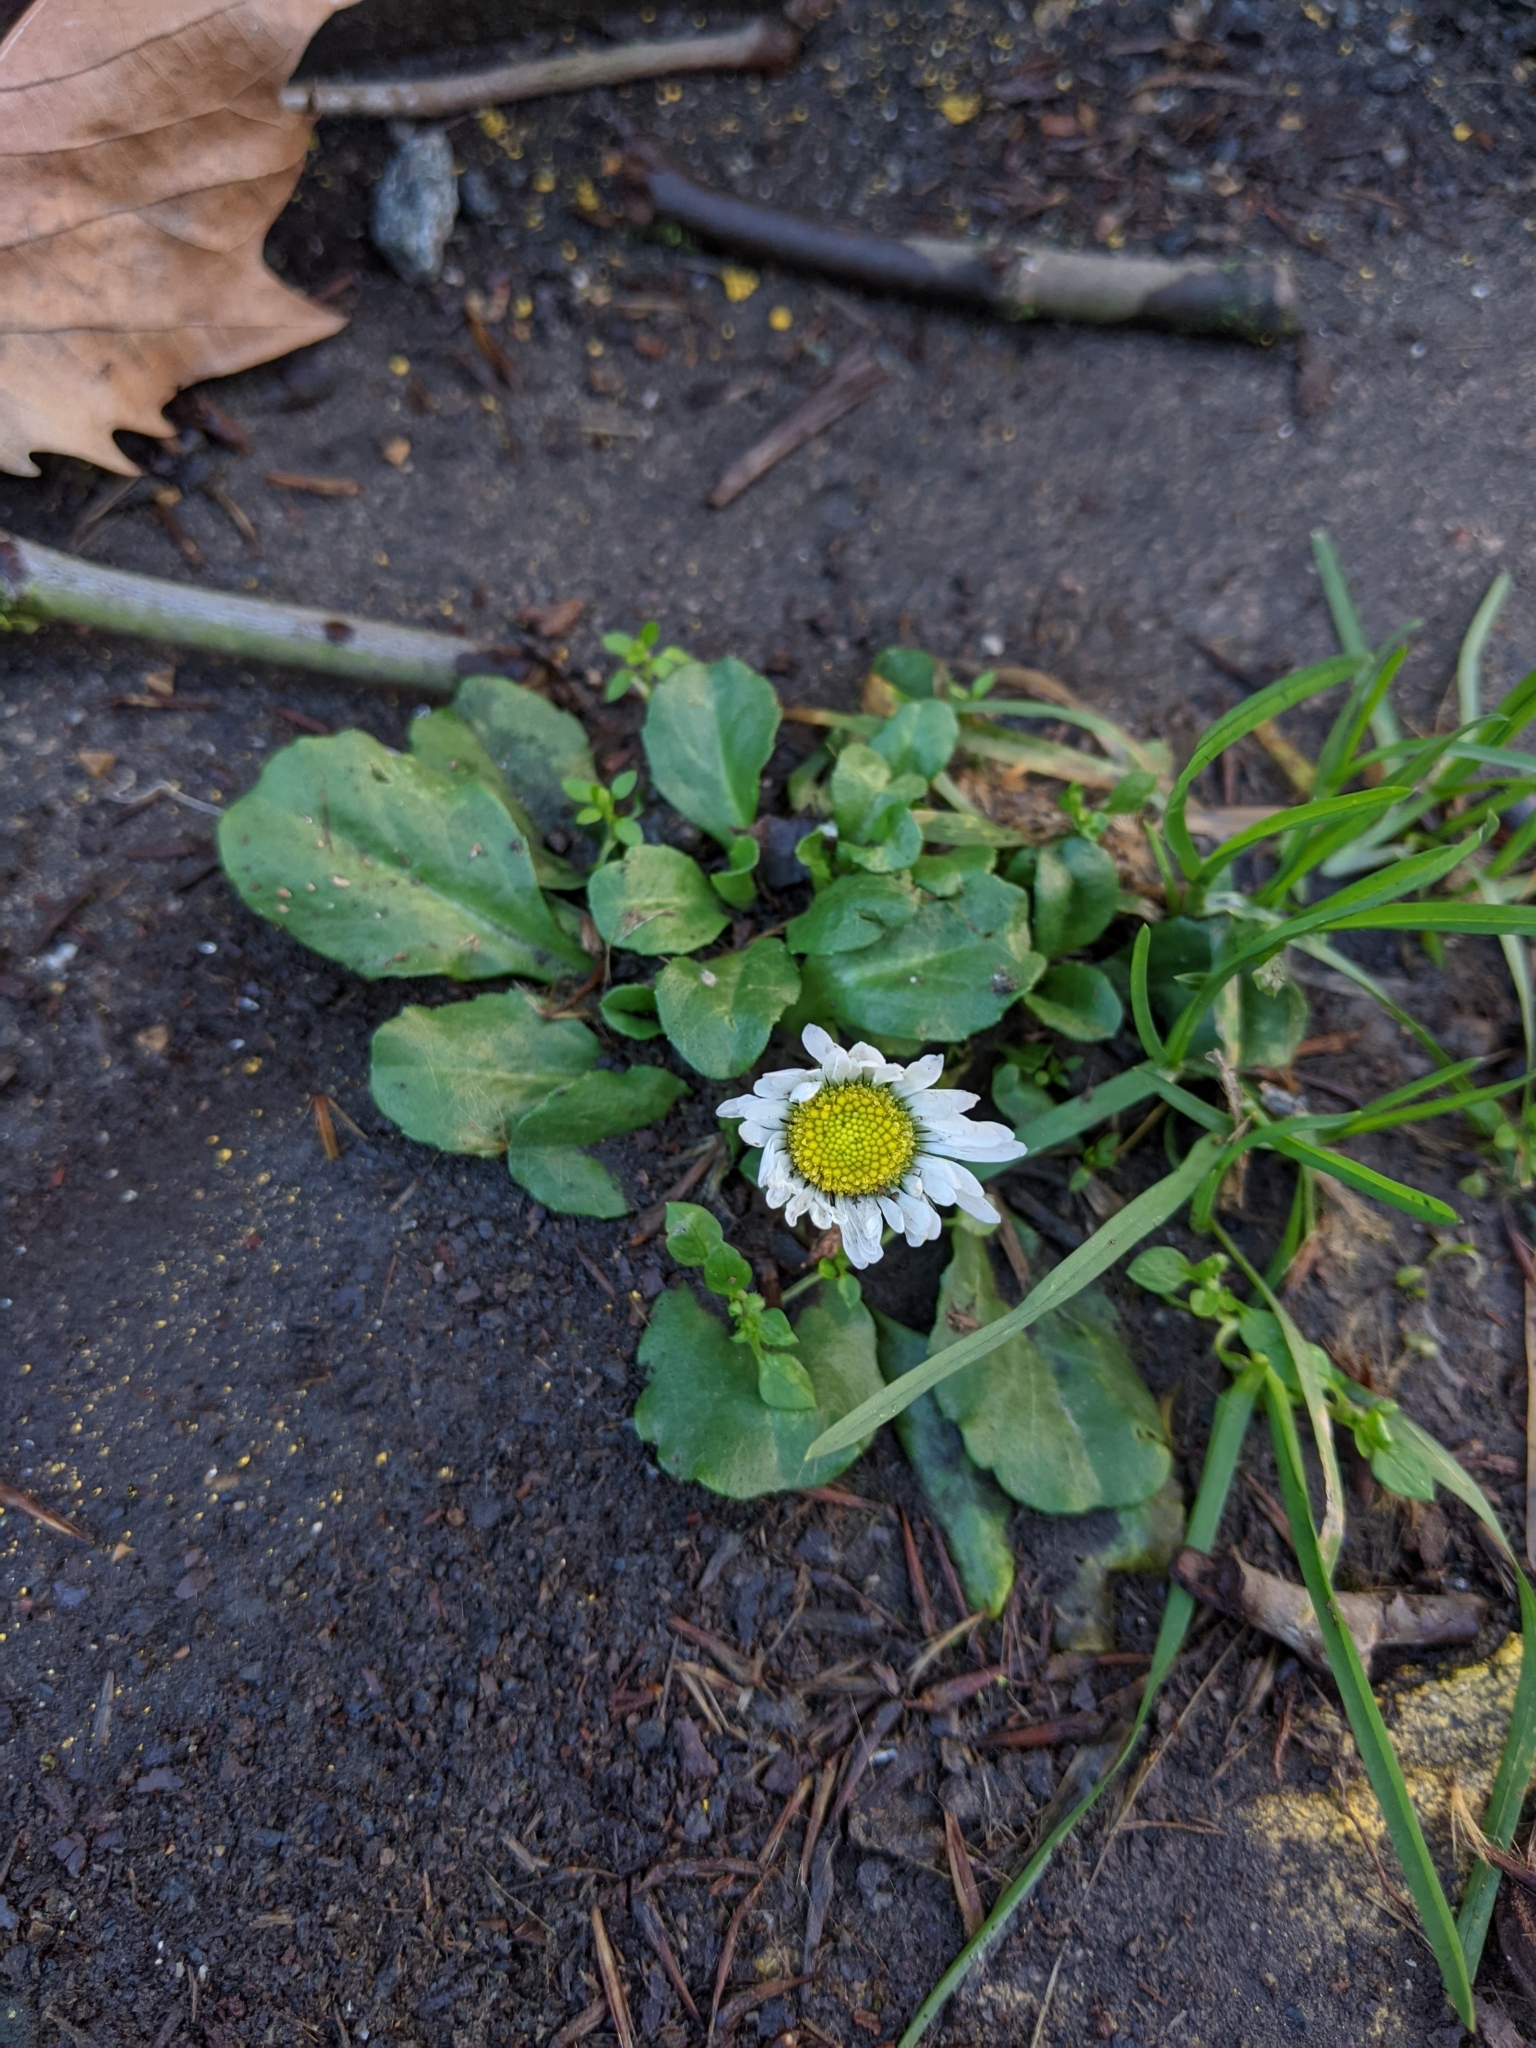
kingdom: Plantae
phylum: Tracheophyta
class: Magnoliopsida
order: Asterales
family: Asteraceae
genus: Bellis
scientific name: Bellis perennis
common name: Lawndaisy
